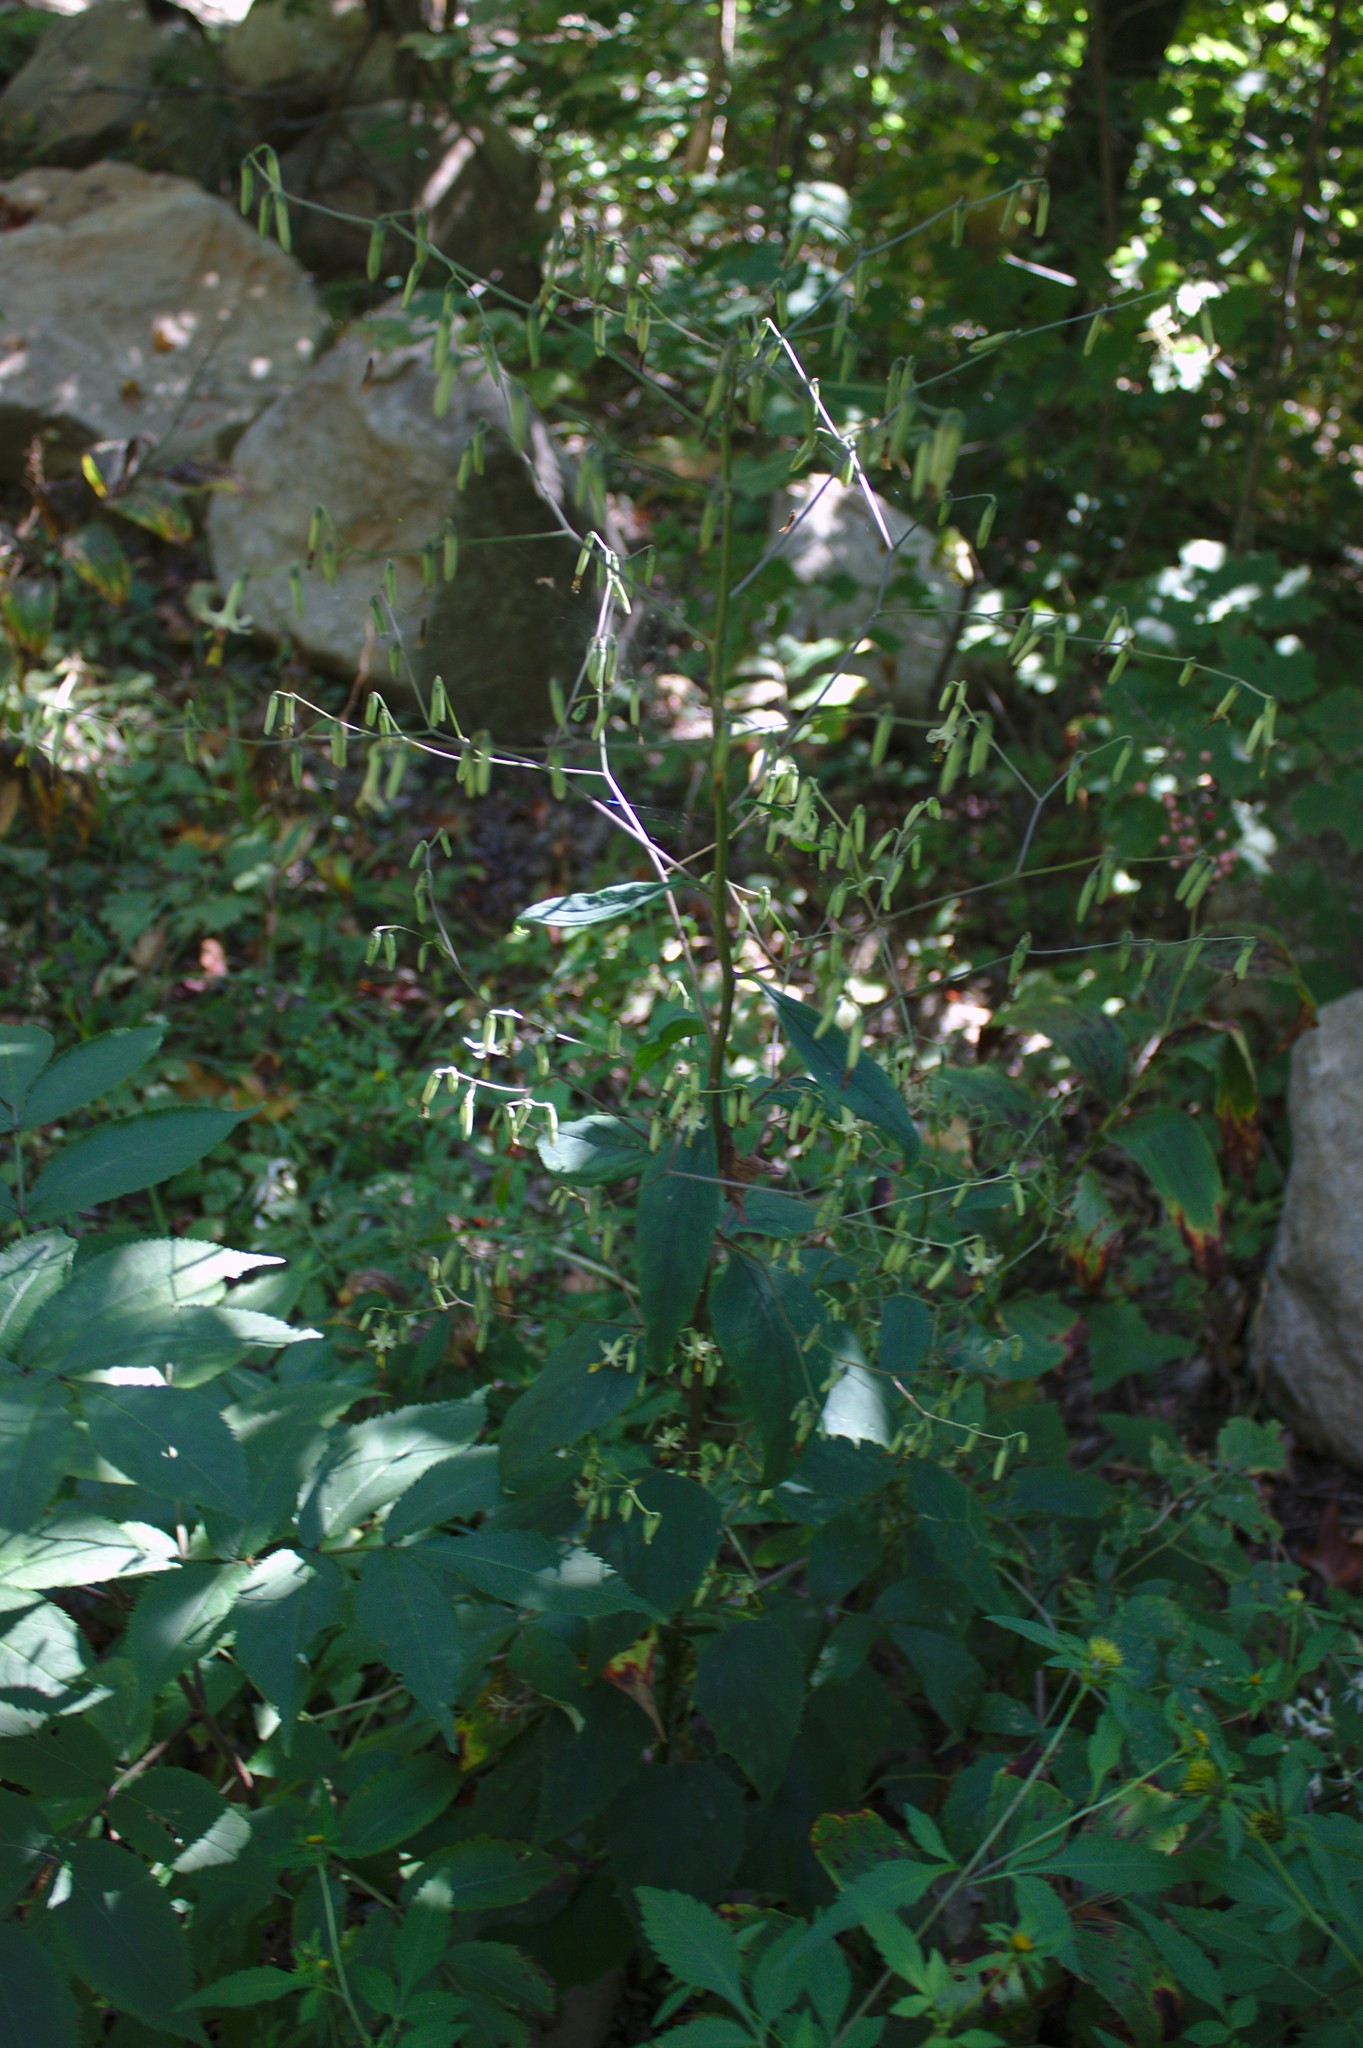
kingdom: Plantae
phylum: Tracheophyta
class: Magnoliopsida
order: Asterales
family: Asteraceae
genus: Nabalus
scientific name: Nabalus altissima
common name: Tall rattlesnakeroot
